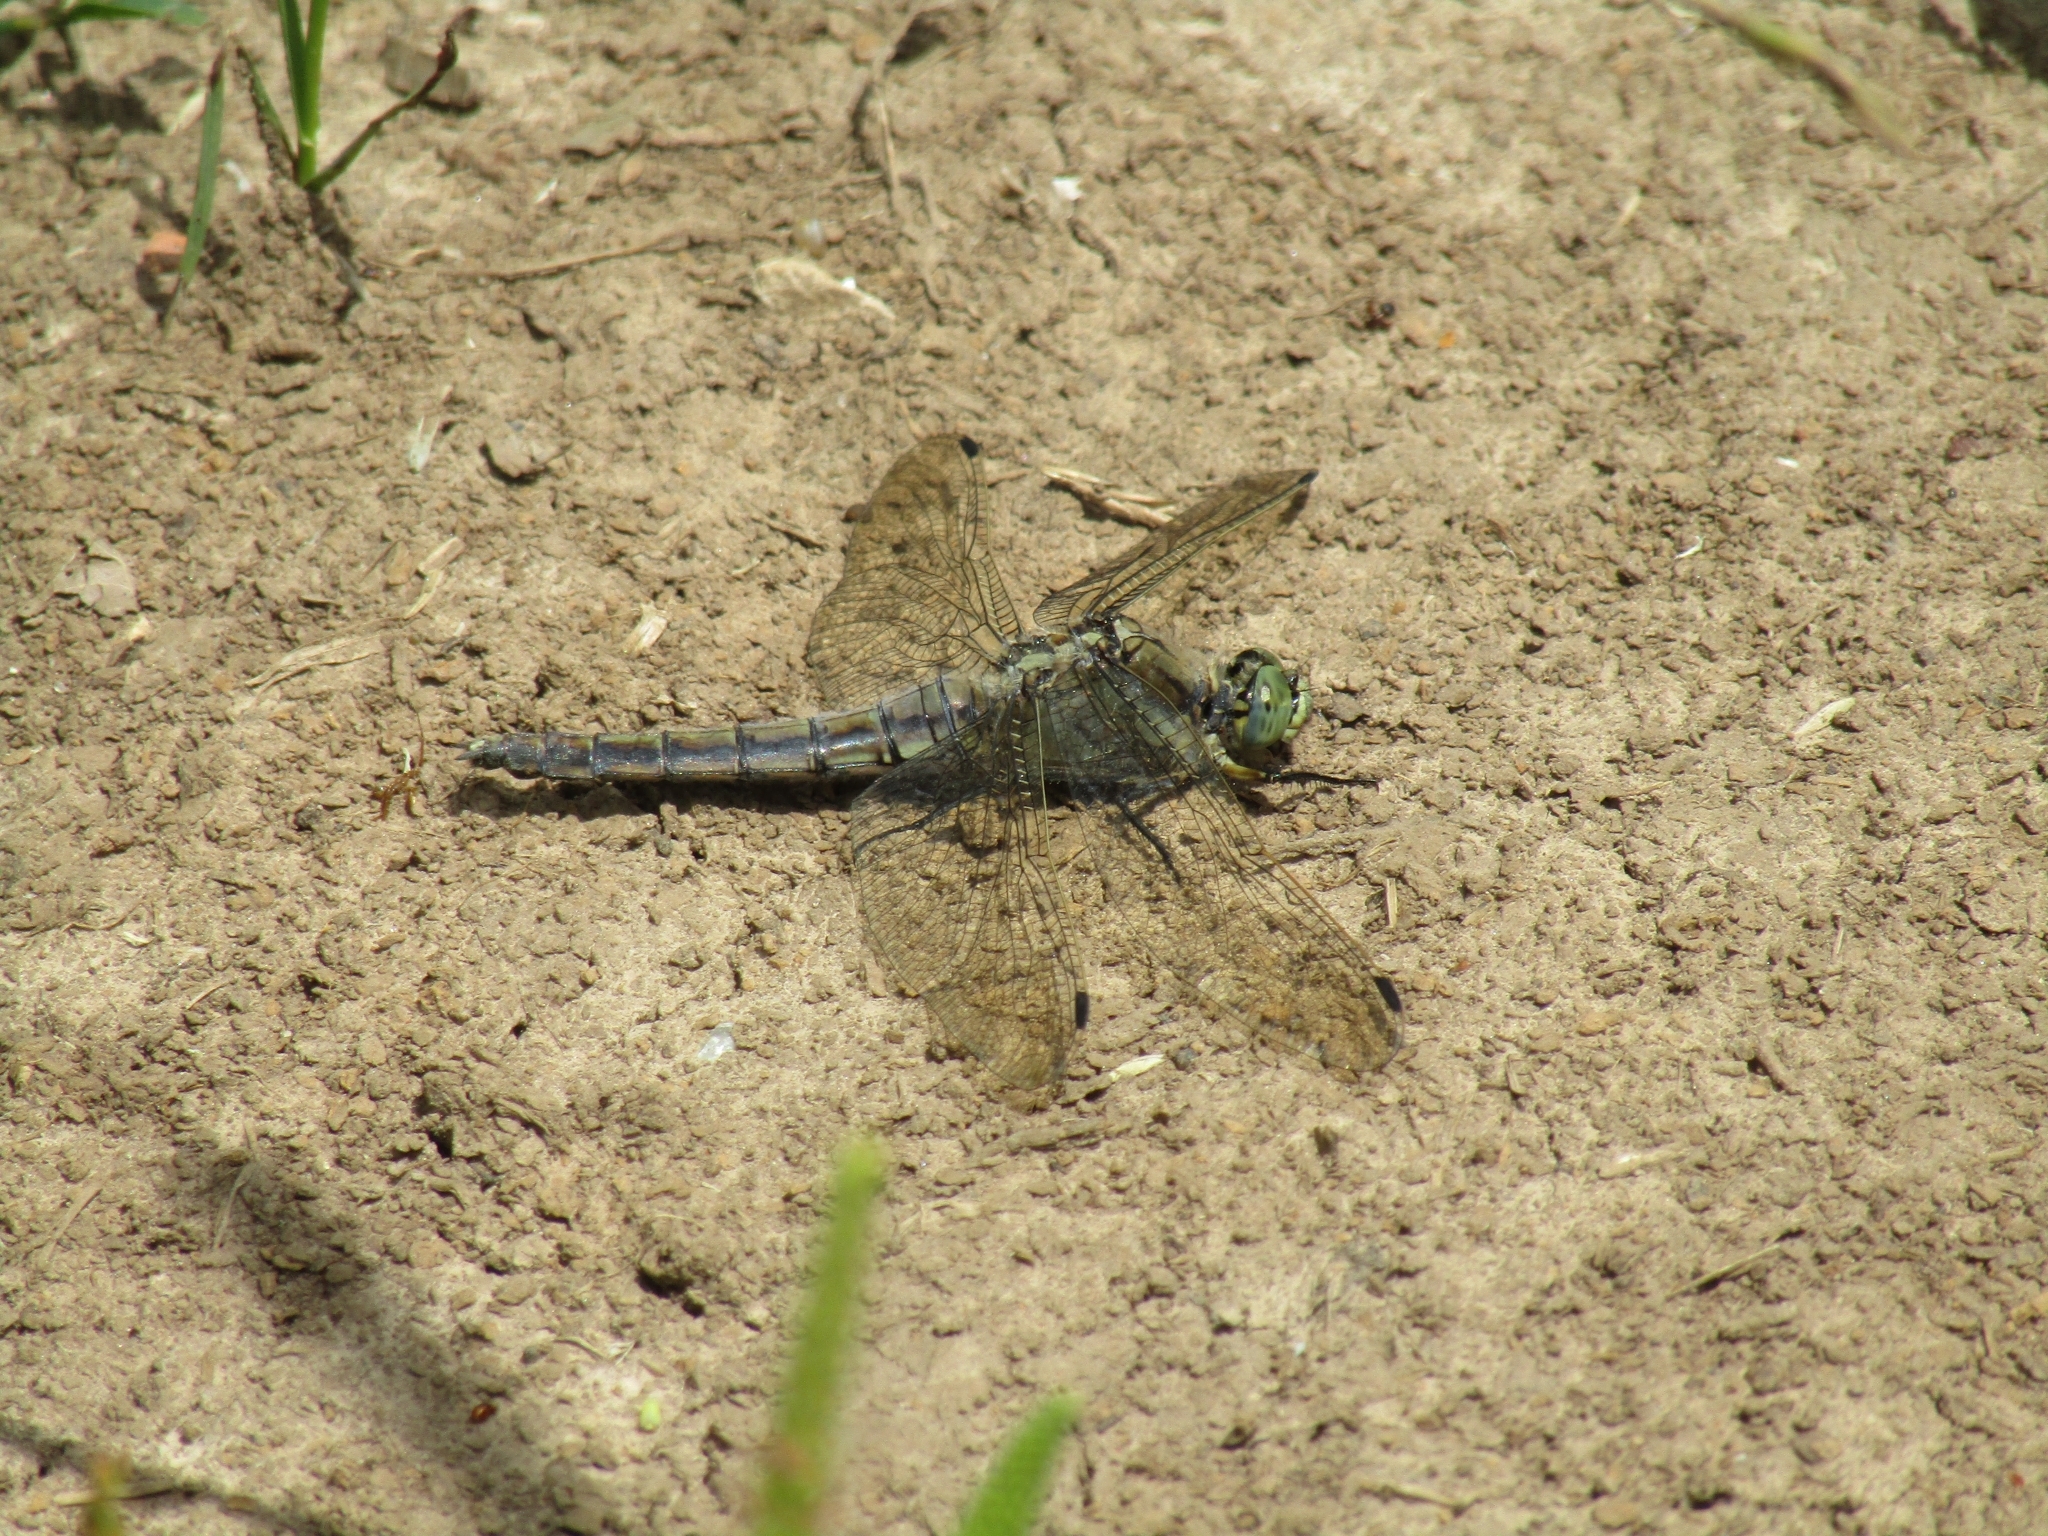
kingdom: Animalia
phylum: Arthropoda
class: Insecta
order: Odonata
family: Libellulidae
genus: Orthetrum
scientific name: Orthetrum cancellatum
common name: Black-tailed skimmer
